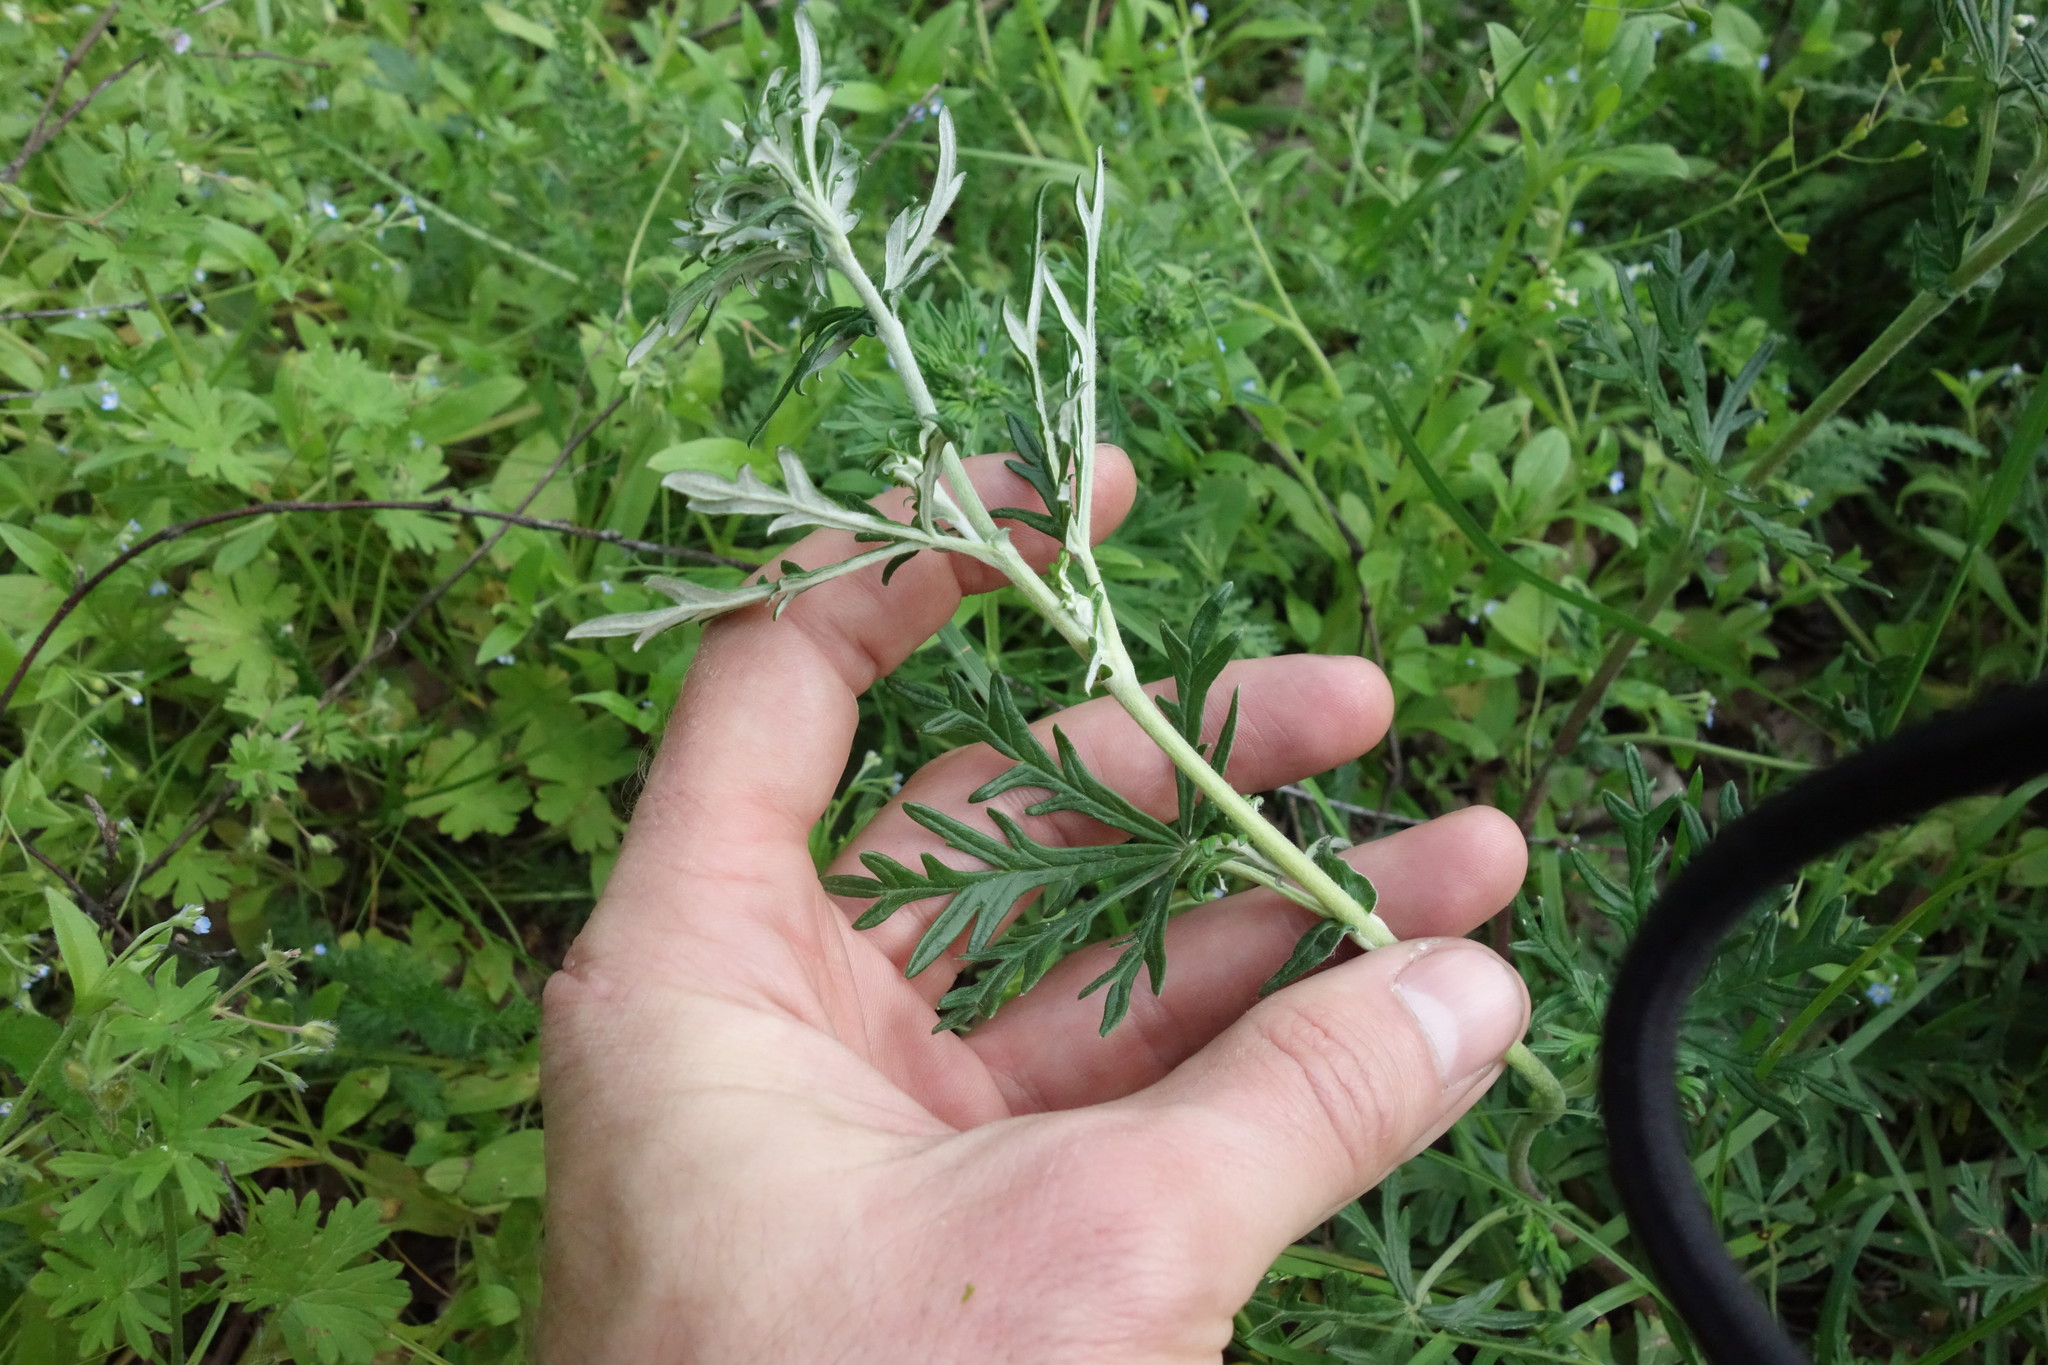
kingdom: Plantae
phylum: Tracheophyta
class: Magnoliopsida
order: Rosales
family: Rosaceae
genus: Potentilla
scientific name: Potentilla argentea
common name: Hoary cinquefoil
